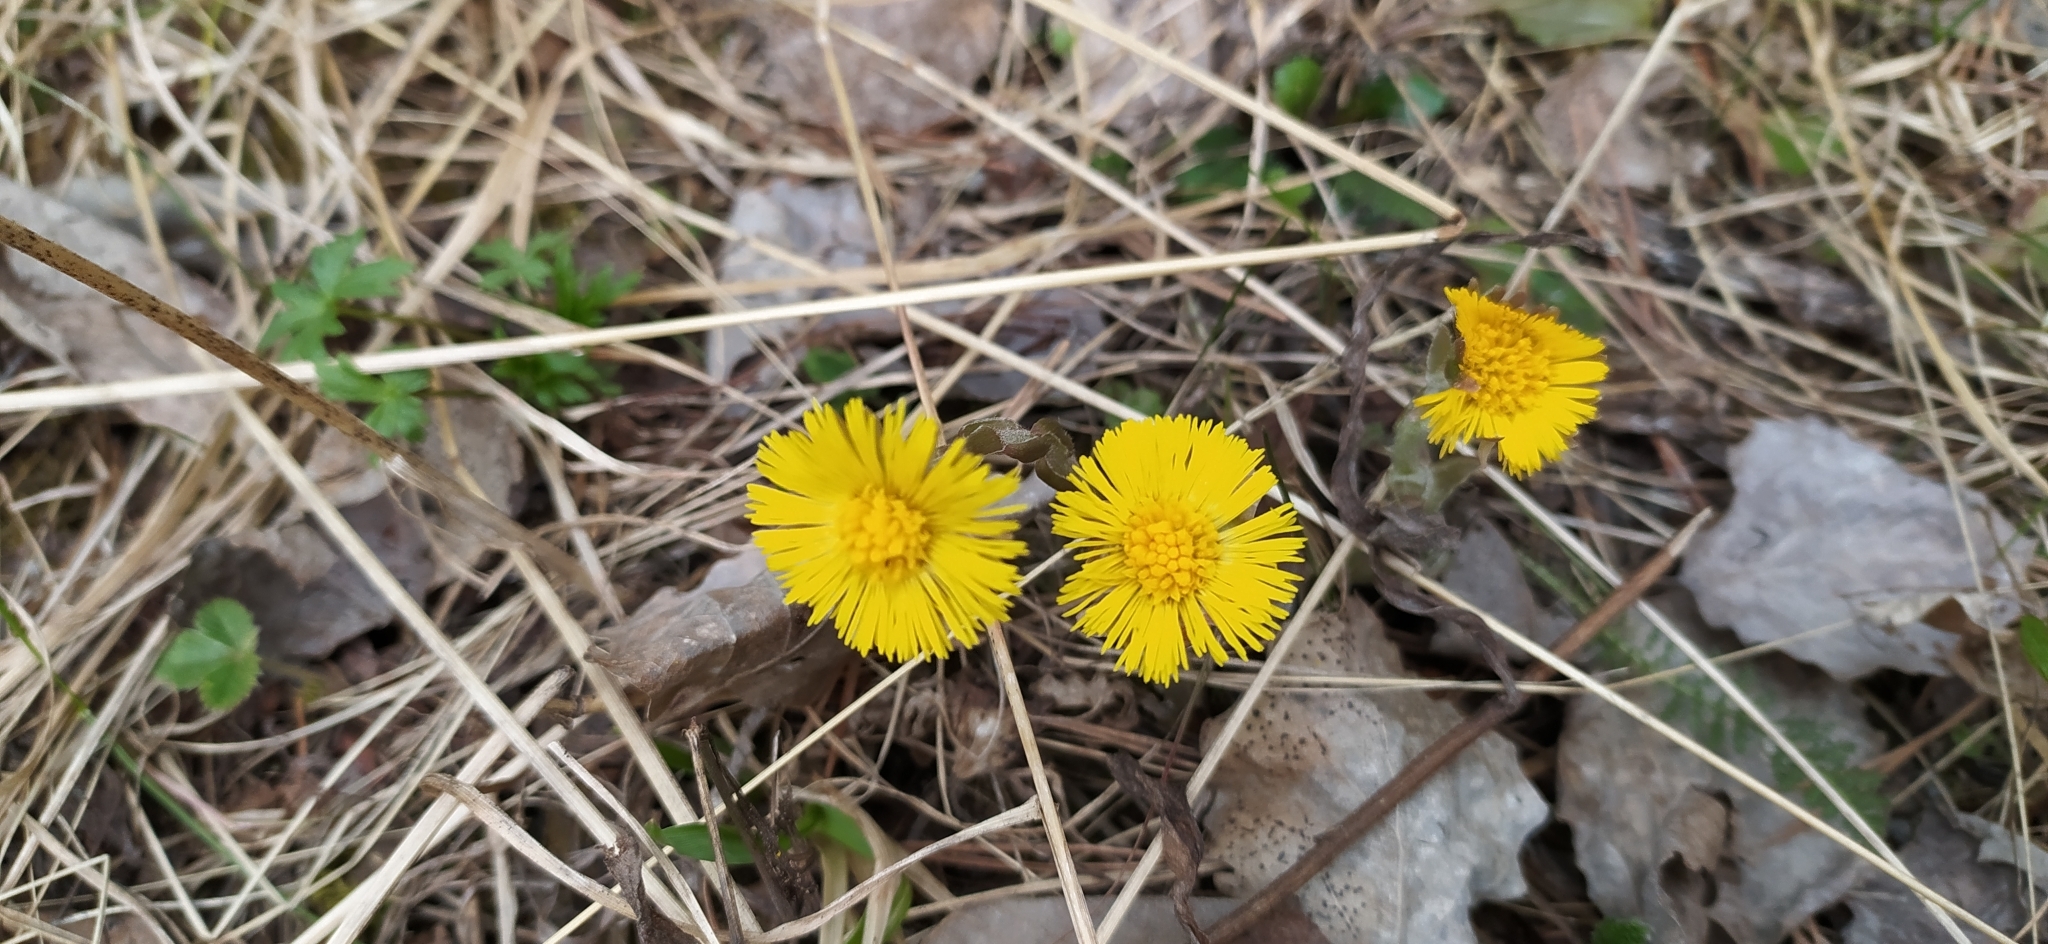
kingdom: Plantae
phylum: Tracheophyta
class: Magnoliopsida
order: Asterales
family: Asteraceae
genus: Tussilago
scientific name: Tussilago farfara
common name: Coltsfoot
